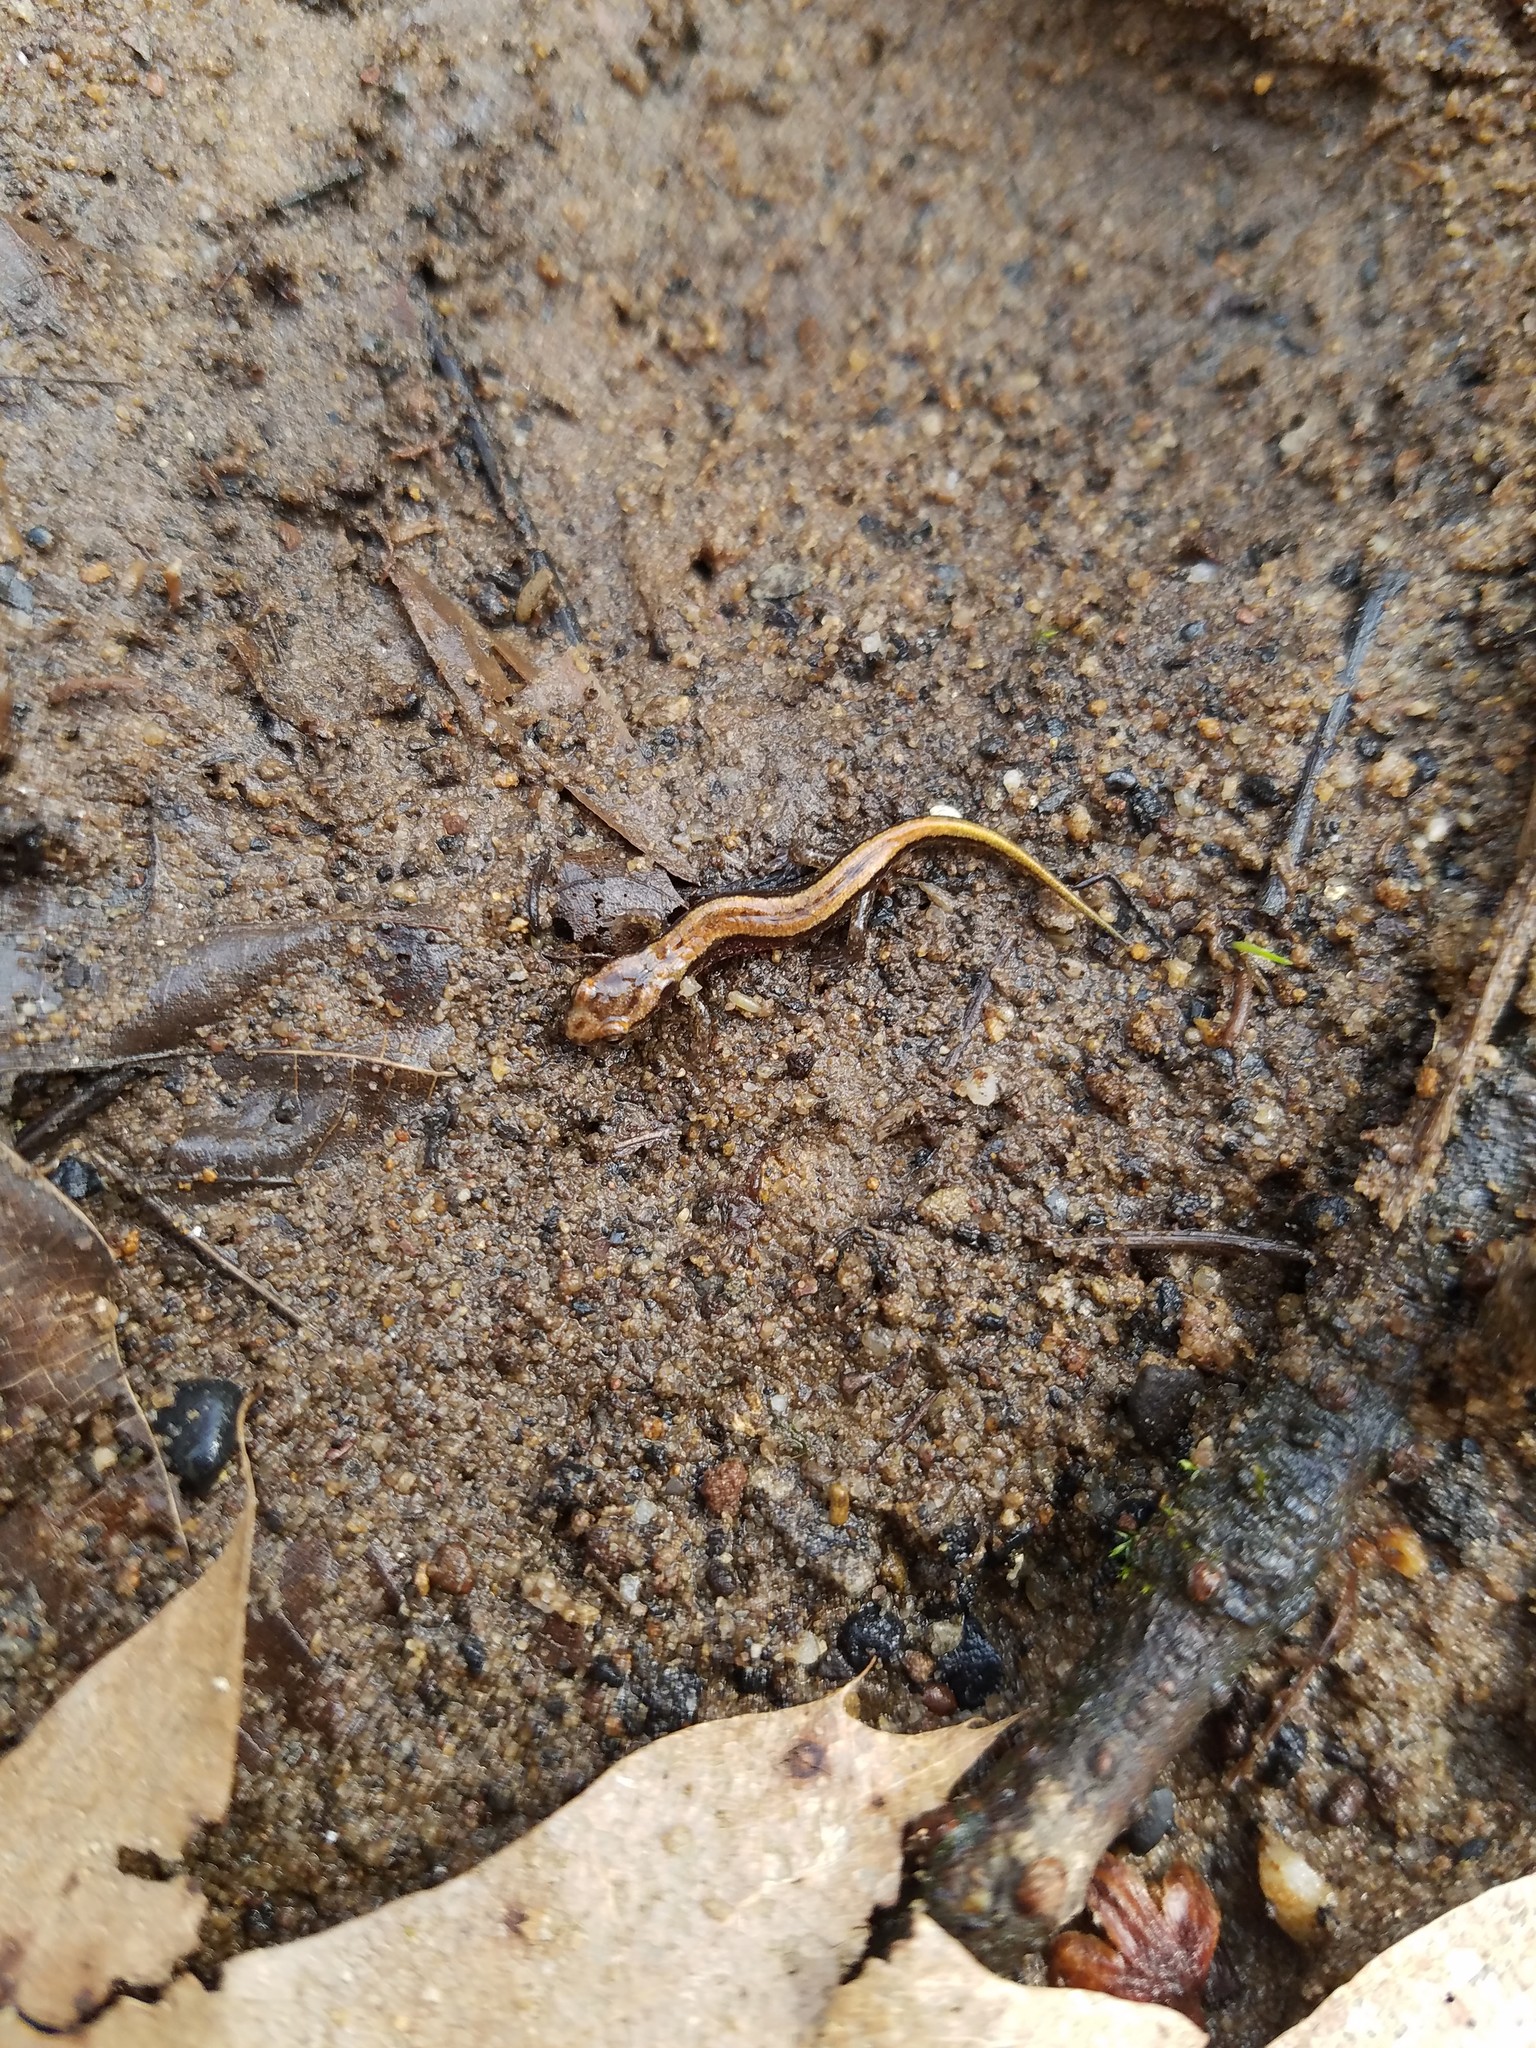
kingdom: Animalia
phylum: Chordata
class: Amphibia
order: Caudata
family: Plethodontidae
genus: Desmognathus
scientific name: Desmognathus ochrophaeus
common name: Allegheny mountain dusky salamander
